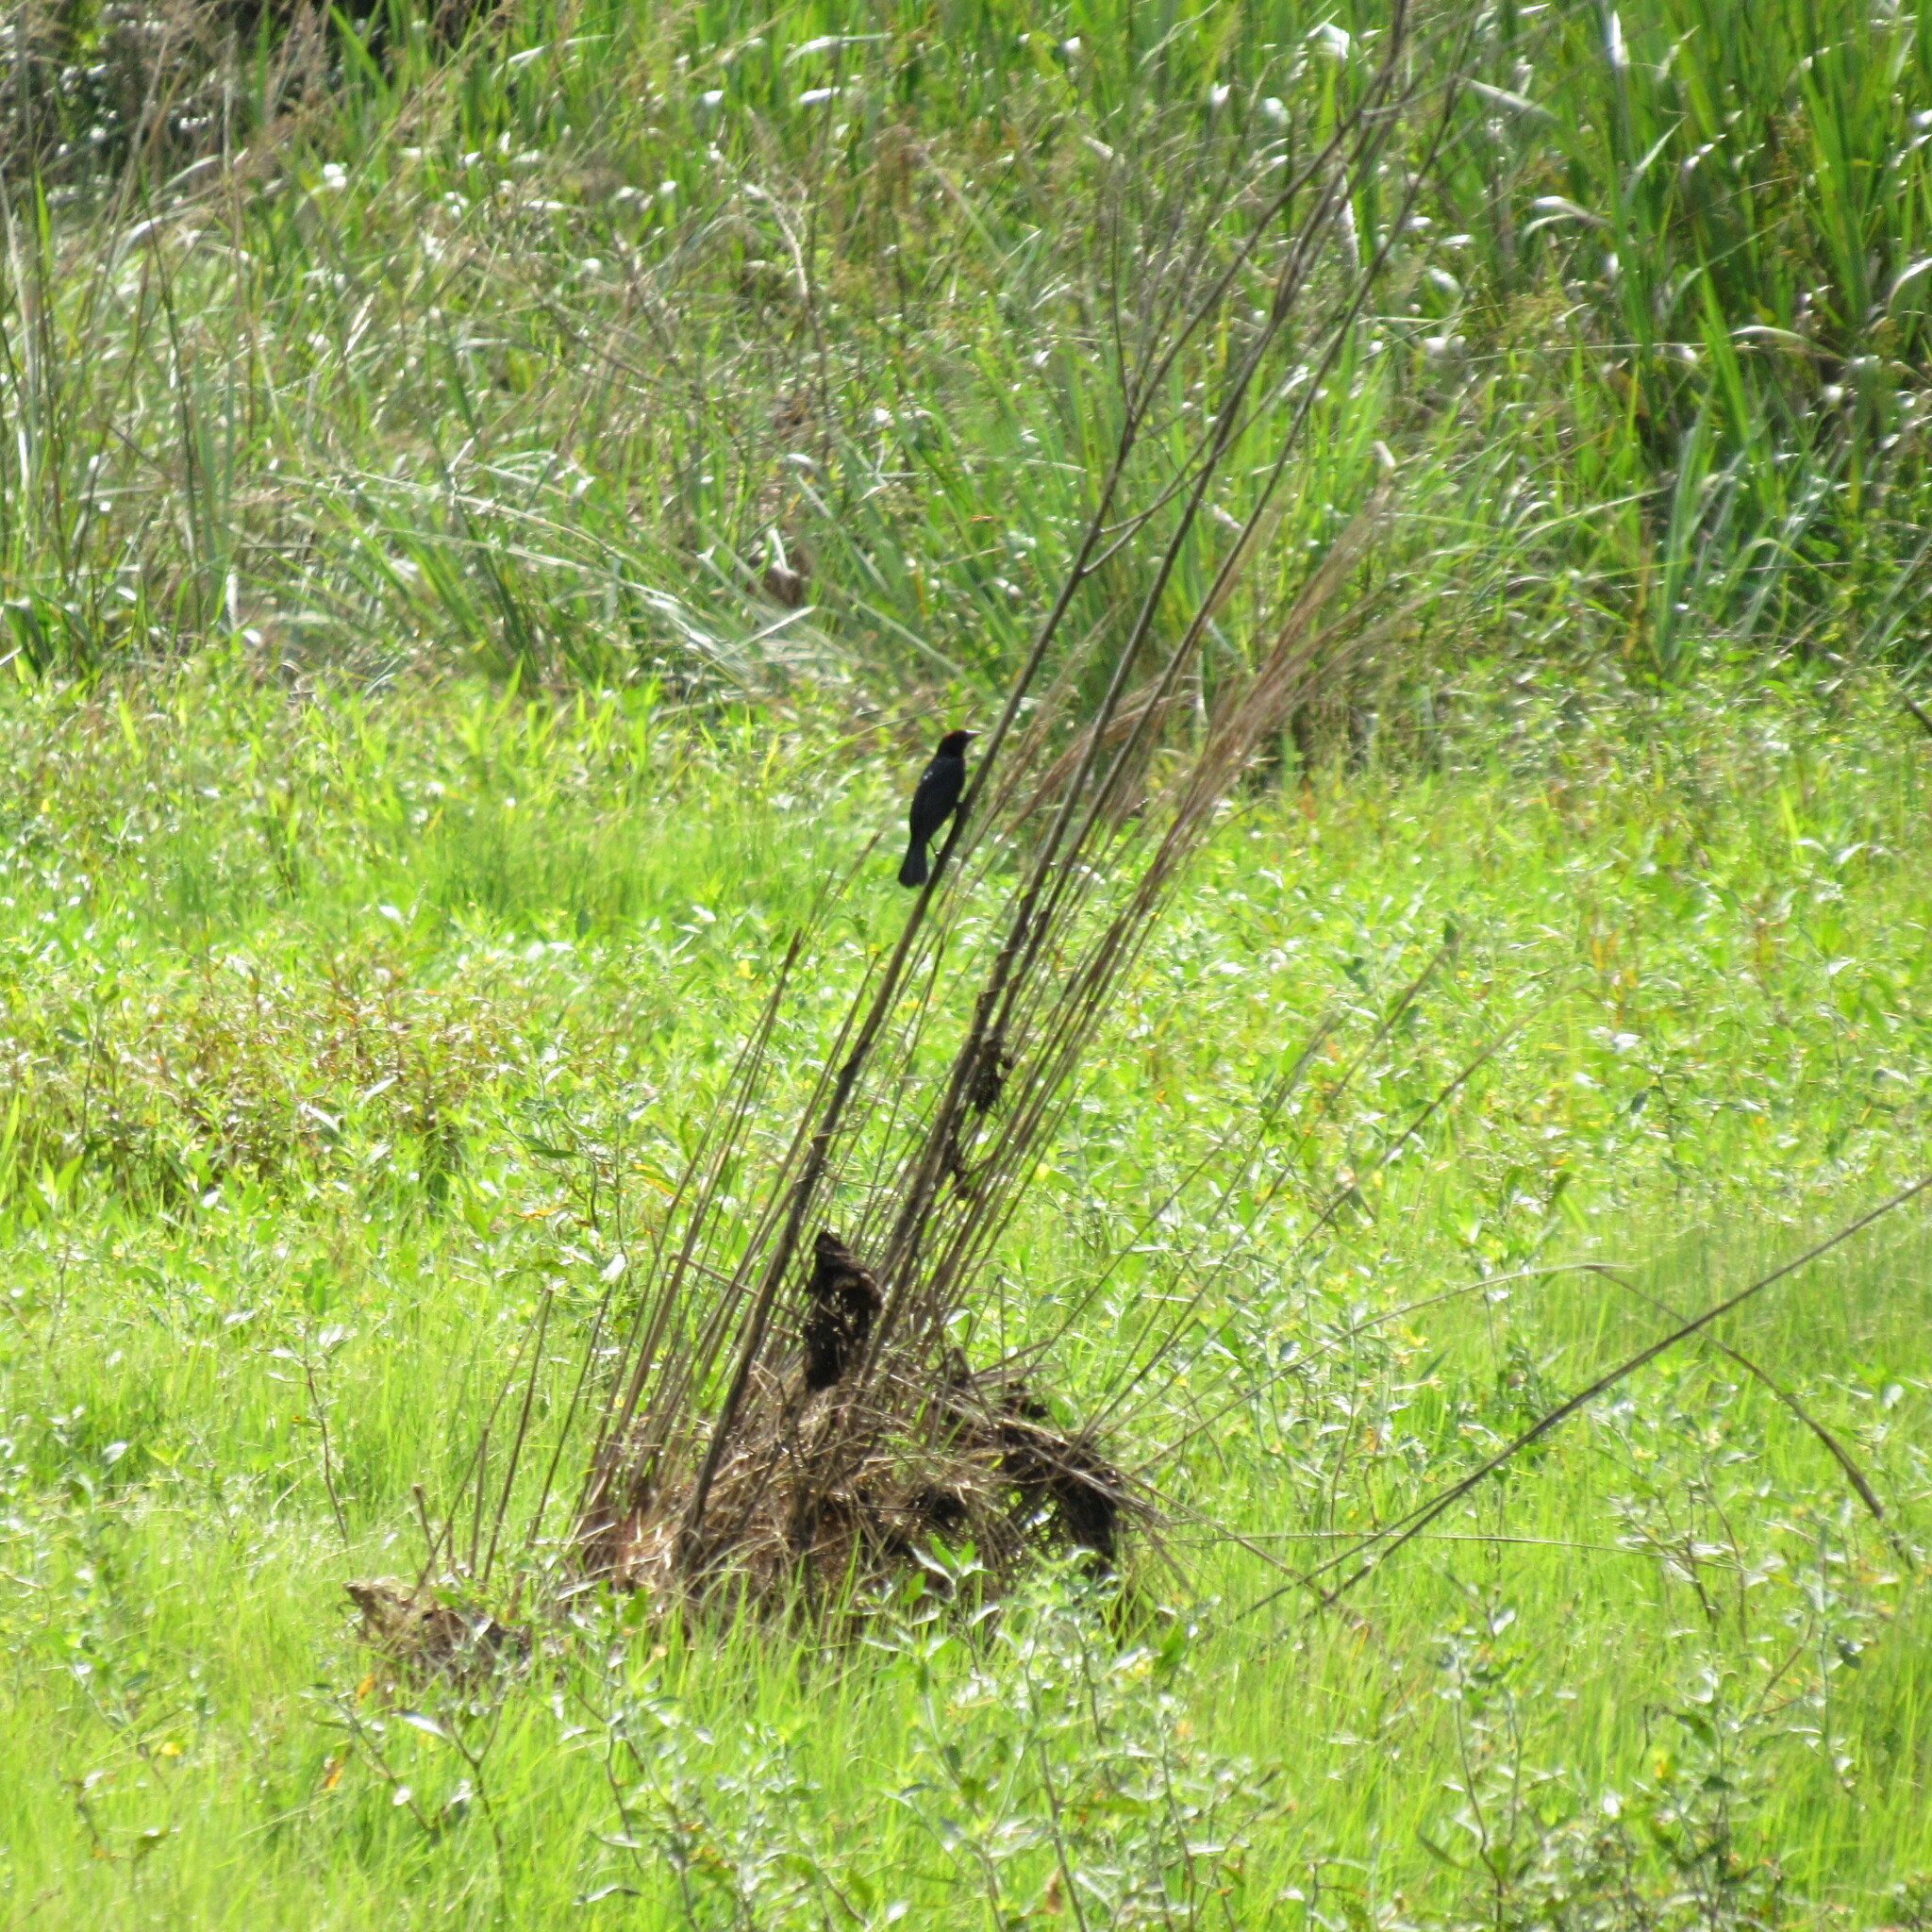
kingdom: Animalia
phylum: Chordata
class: Aves
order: Passeriformes
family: Icteridae
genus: Chrysomus
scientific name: Chrysomus ruficapillus
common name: Chestnut-capped blackbird
